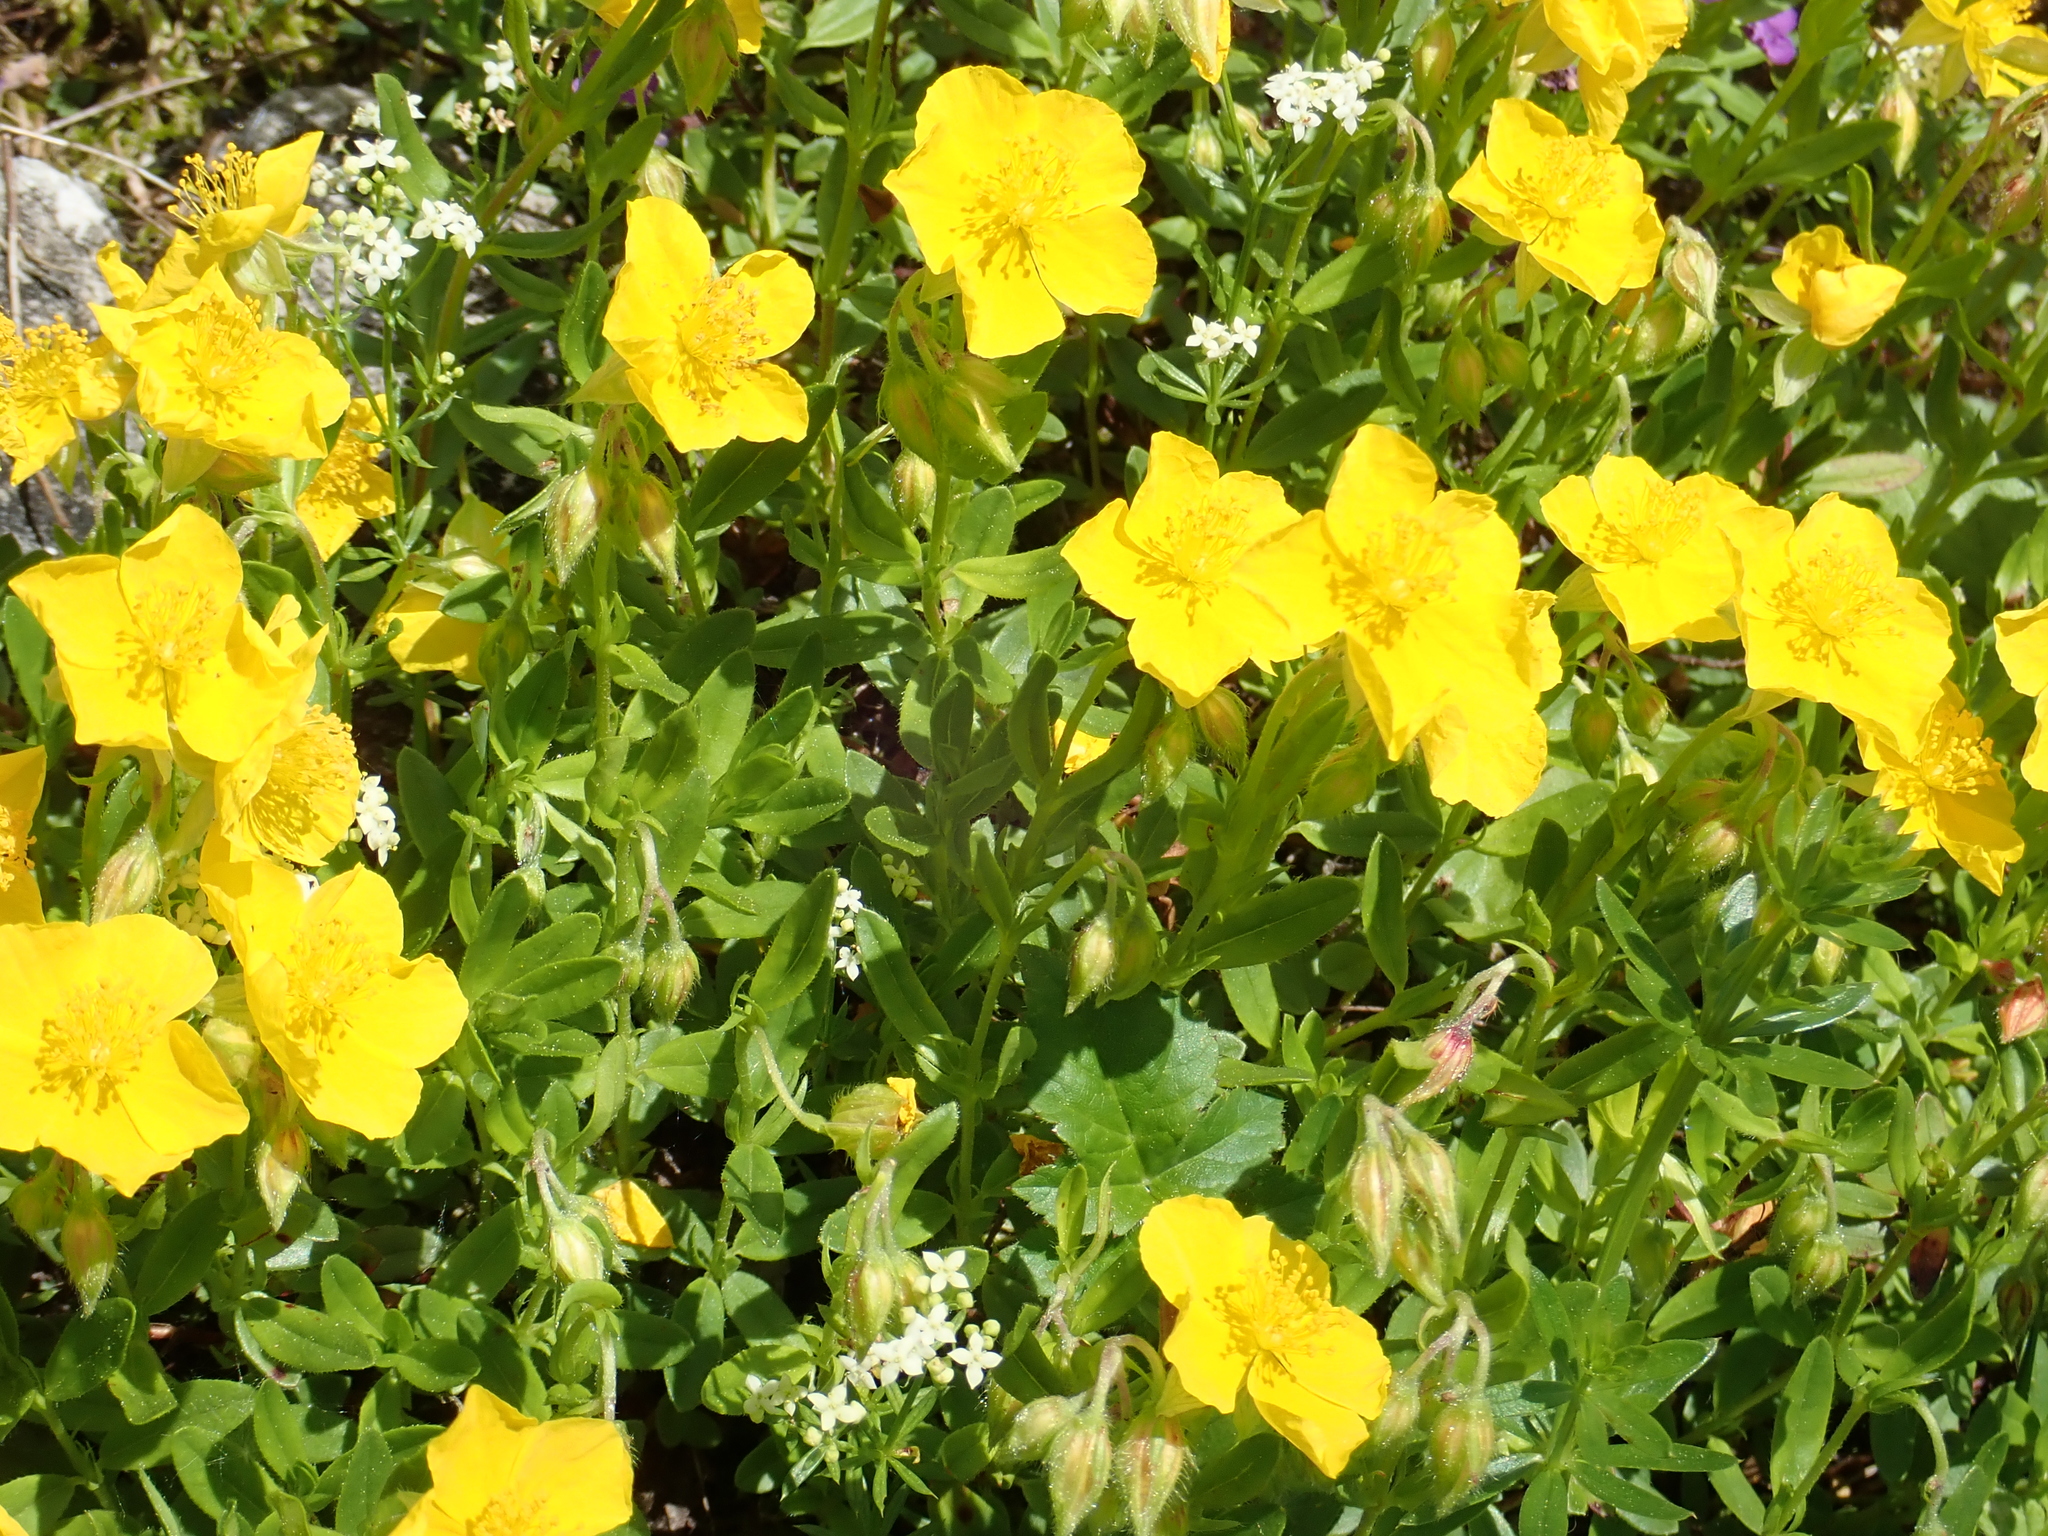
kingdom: Plantae
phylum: Tracheophyta
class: Magnoliopsida
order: Malvales
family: Cistaceae
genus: Helianthemum
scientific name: Helianthemum nummularium
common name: Common rock-rose
